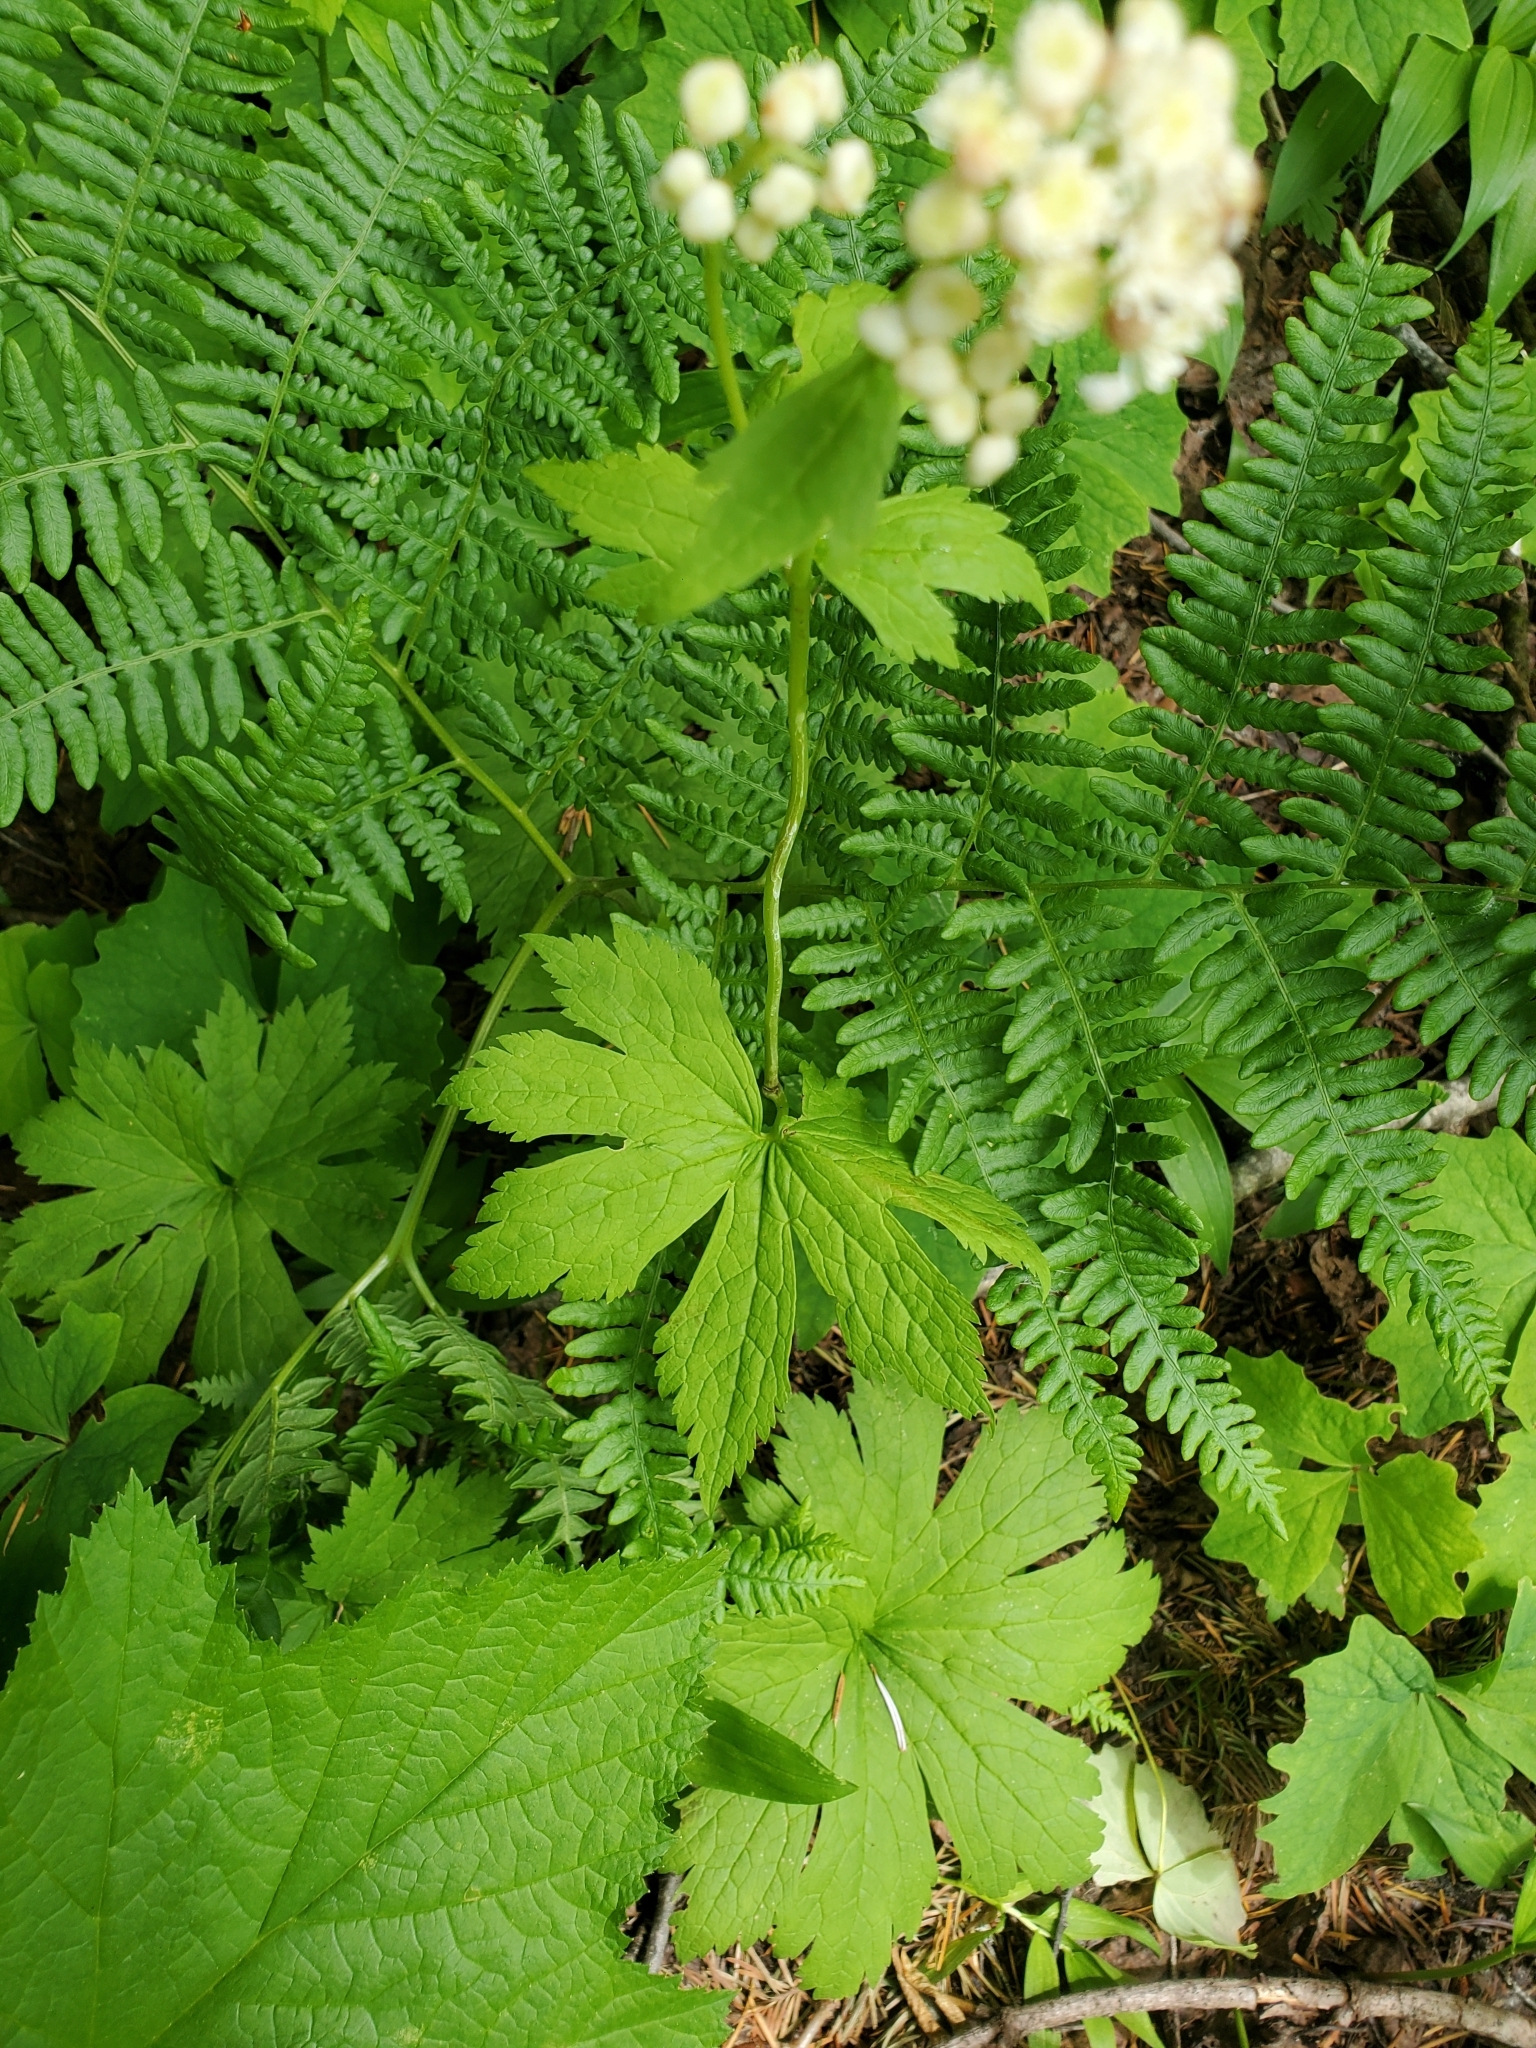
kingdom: Plantae
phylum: Tracheophyta
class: Magnoliopsida
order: Ranunculales
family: Ranunculaceae
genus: Trautvetteria
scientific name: Trautvetteria carolinensis
